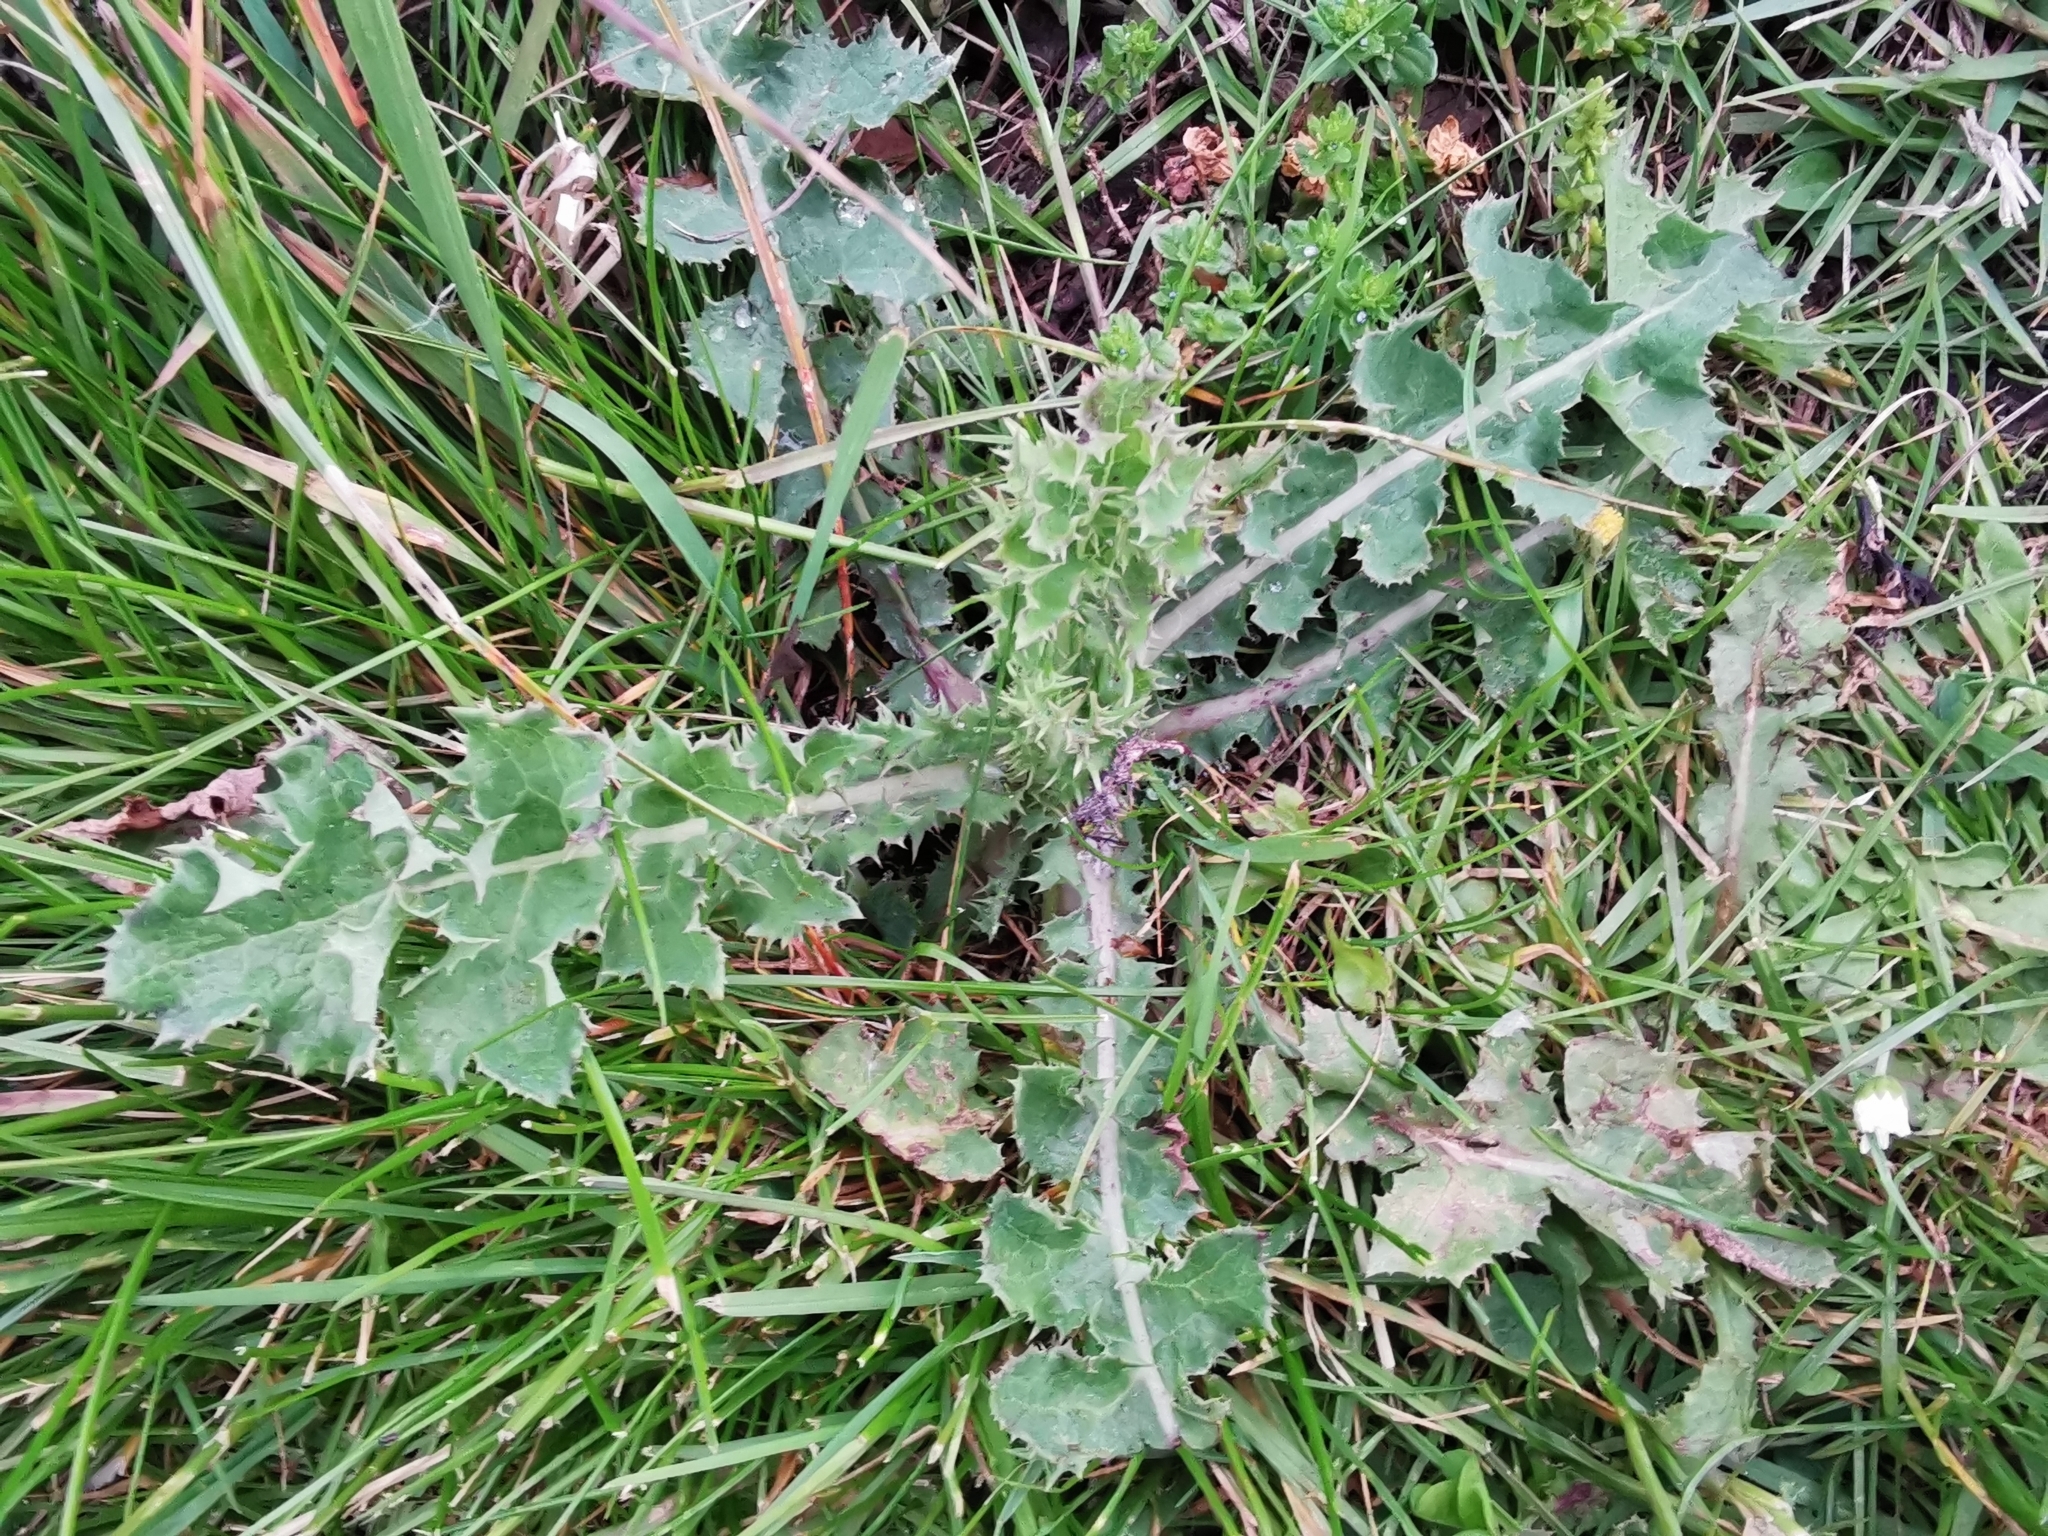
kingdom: Plantae
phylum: Tracheophyta
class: Magnoliopsida
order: Asterales
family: Asteraceae
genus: Sonchus
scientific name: Sonchus asper
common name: Prickly sow-thistle
